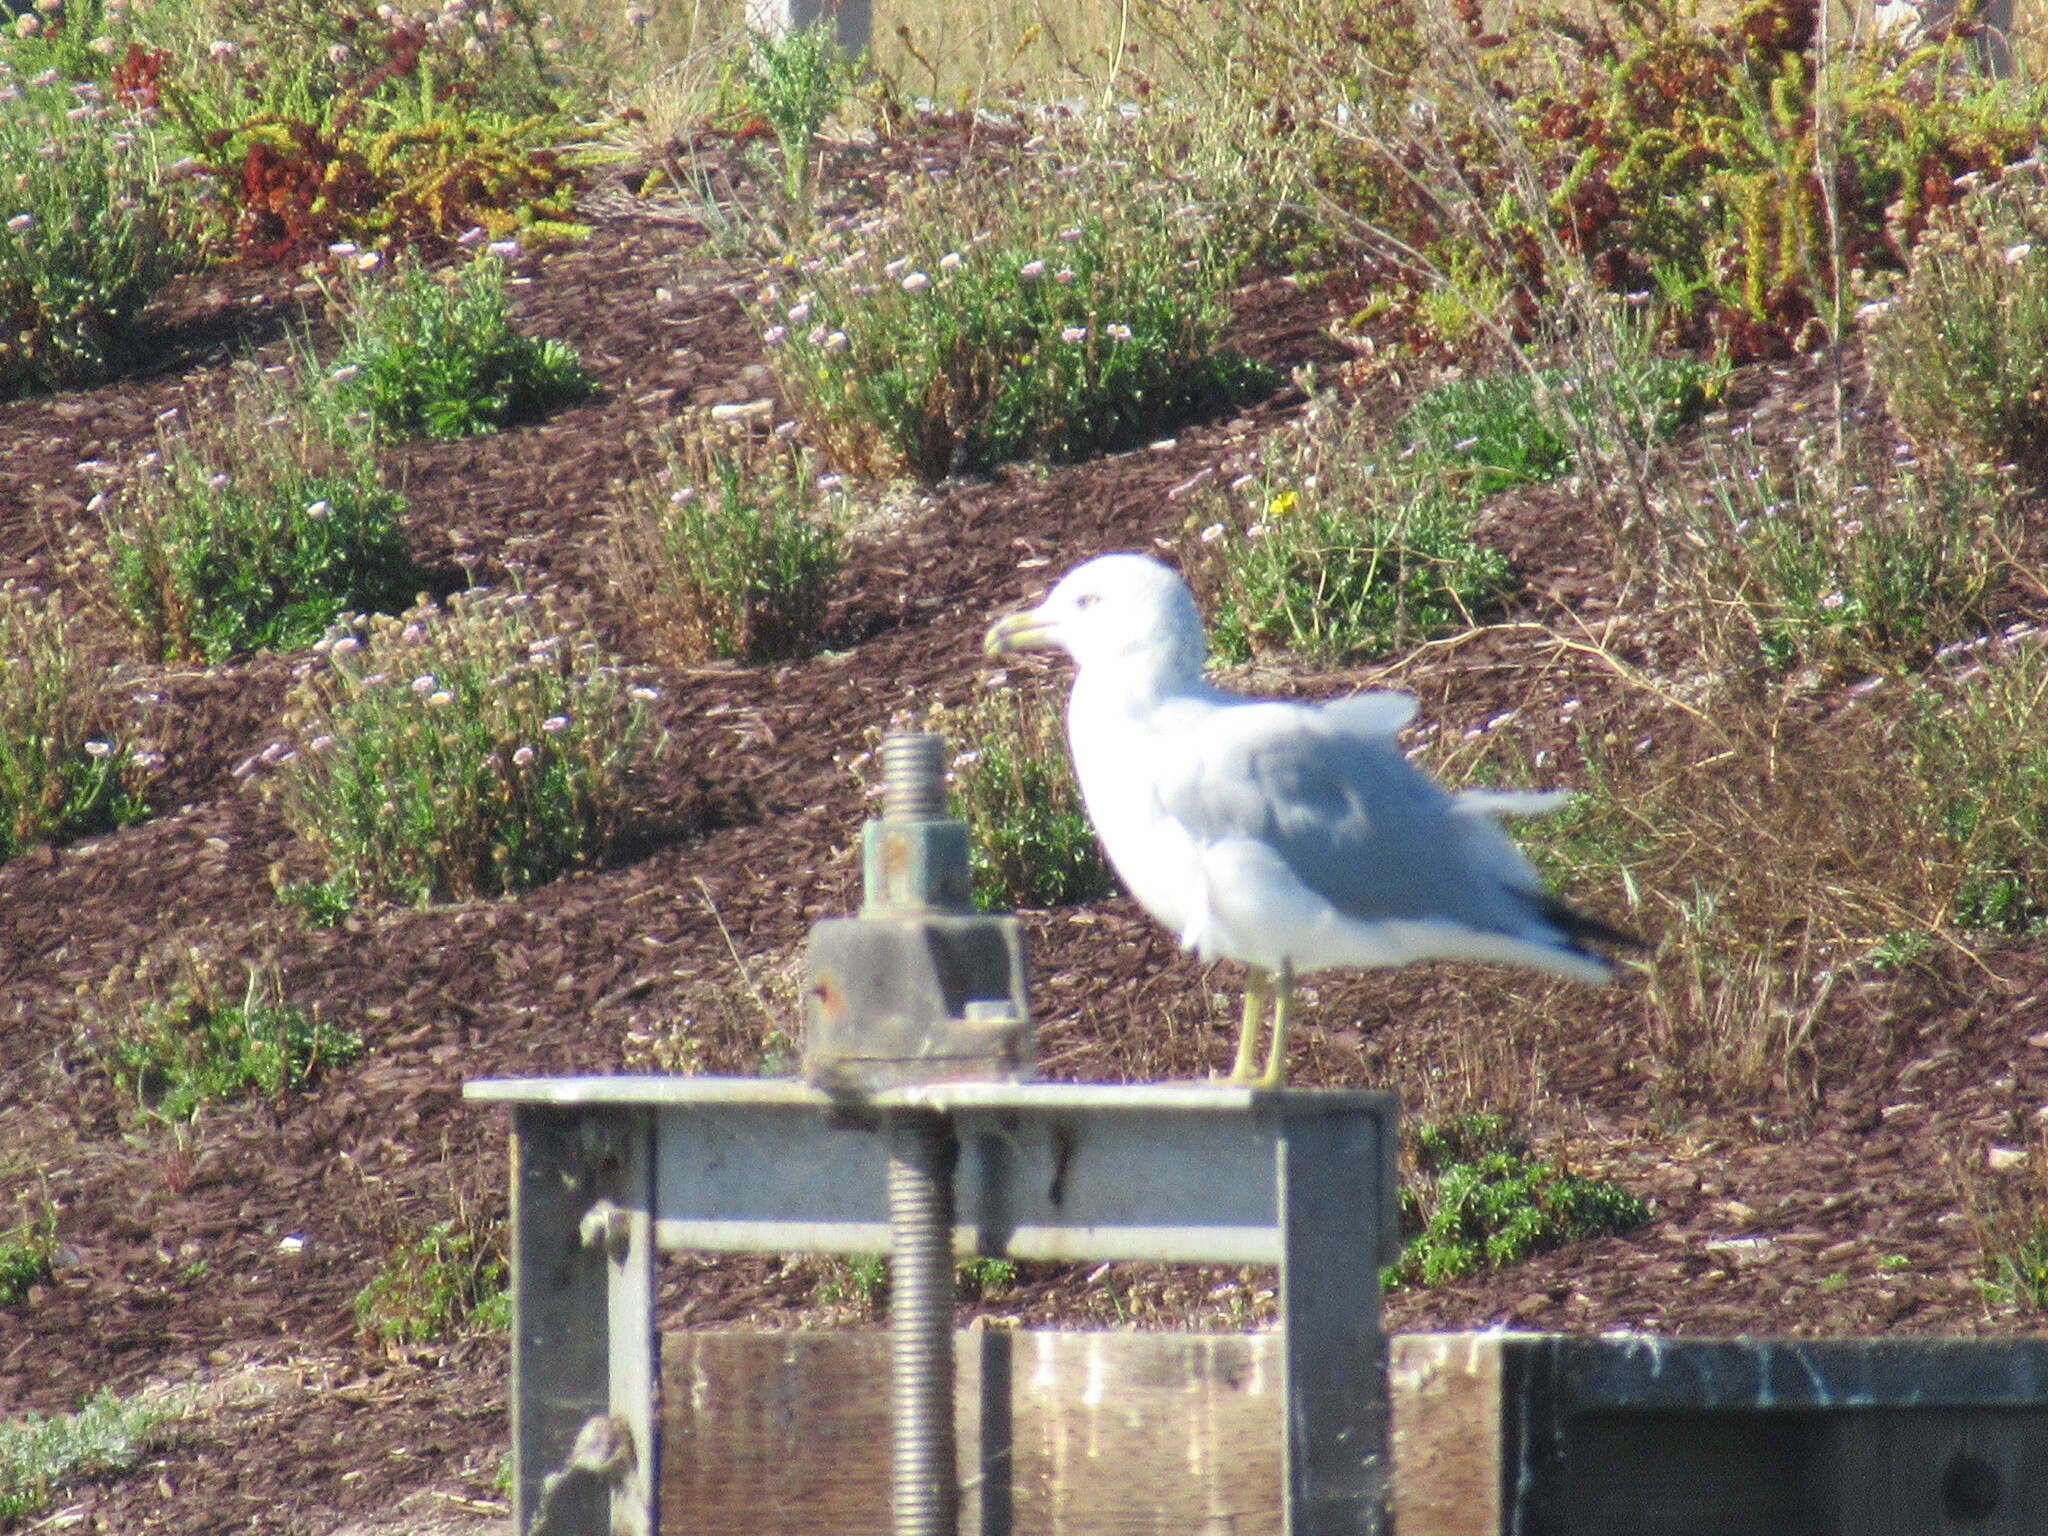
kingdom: Animalia
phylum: Chordata
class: Aves
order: Charadriiformes
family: Laridae
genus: Larus
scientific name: Larus delawarensis
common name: Ring-billed gull
